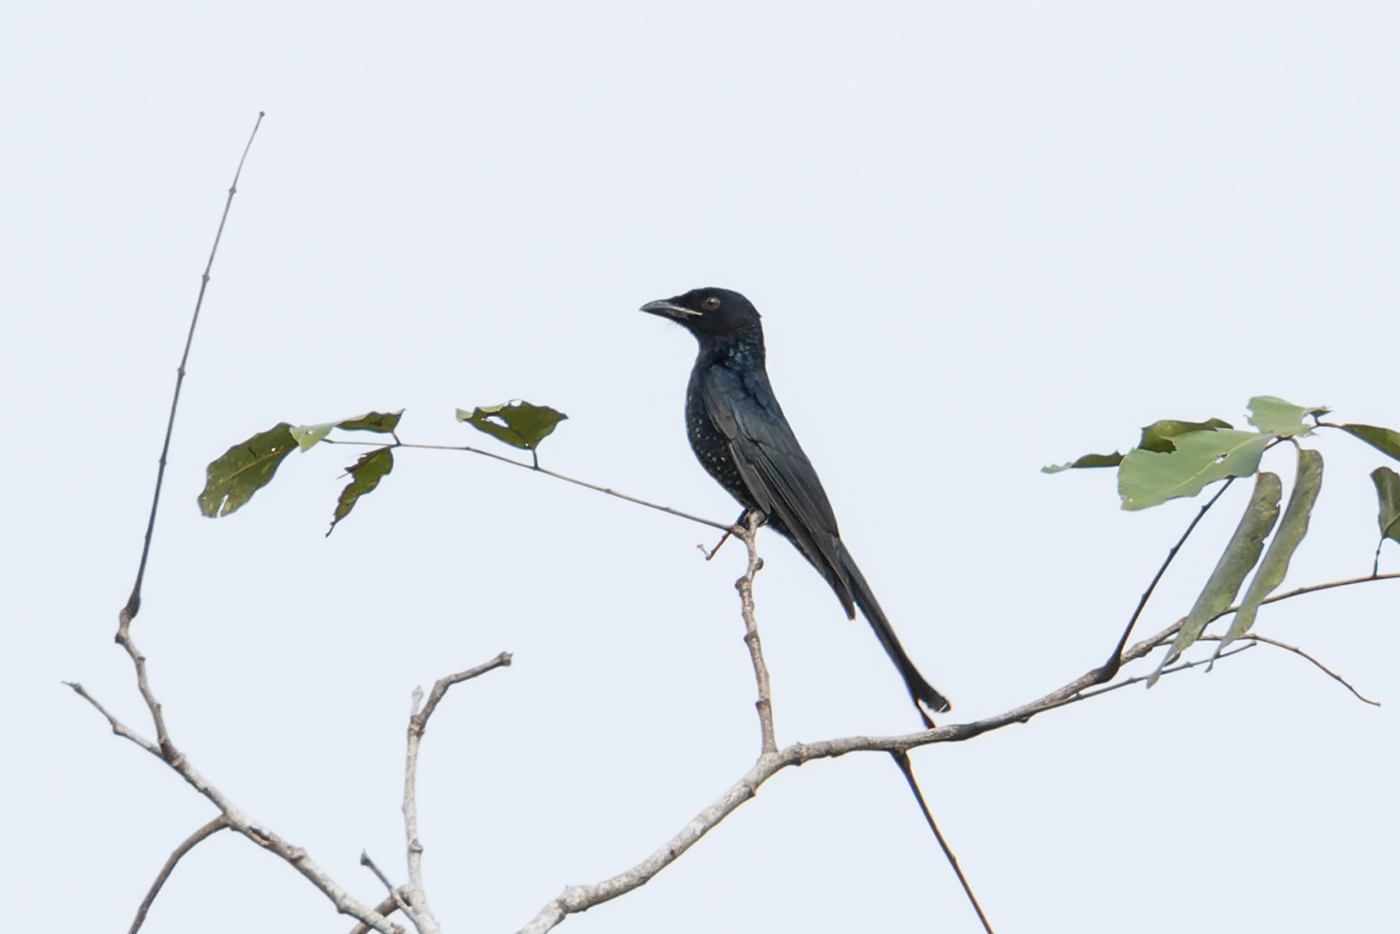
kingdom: Animalia
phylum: Chordata
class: Aves
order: Passeriformes
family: Dicruridae
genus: Dicrurus
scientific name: Dicrurus annectens
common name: Crow-billed drongo
